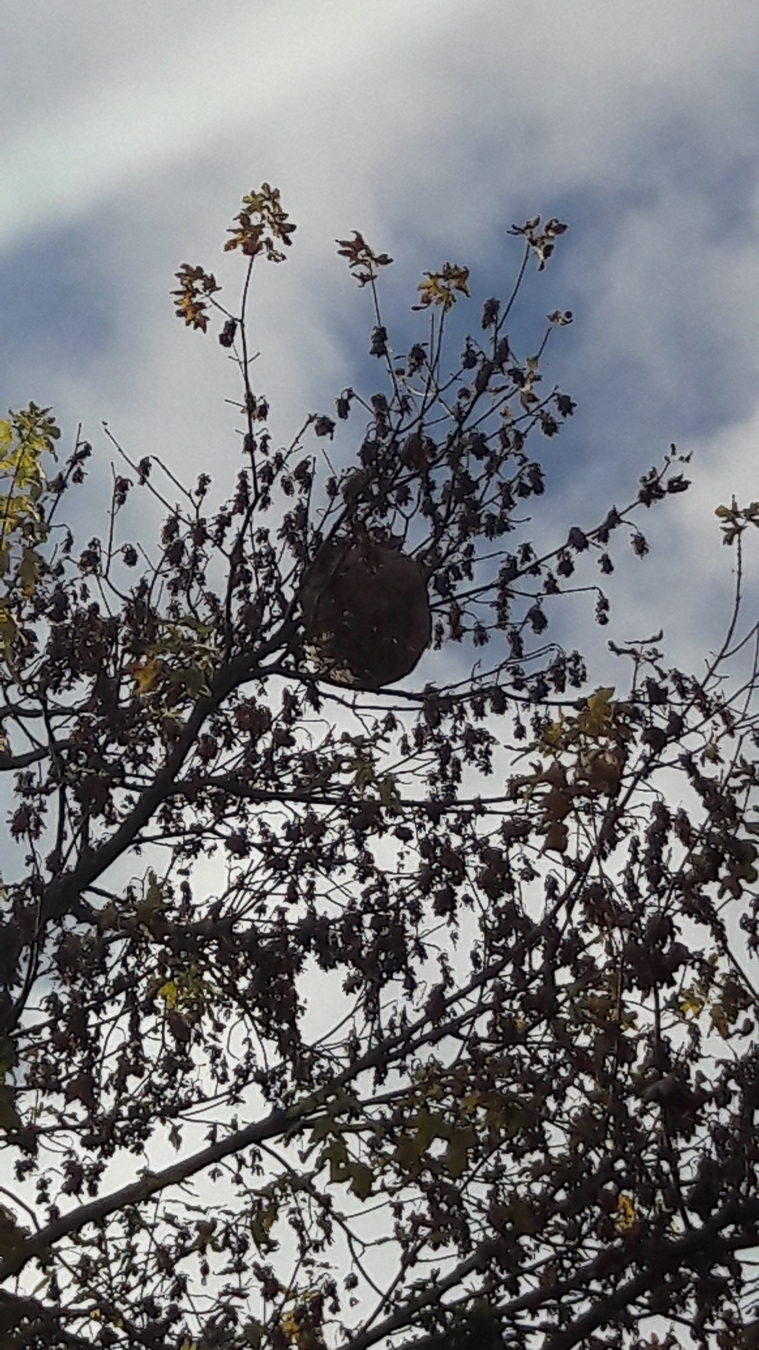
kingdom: Animalia
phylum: Arthropoda
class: Insecta
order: Hymenoptera
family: Vespidae
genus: Vespa
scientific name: Vespa velutina
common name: Asian hornet
